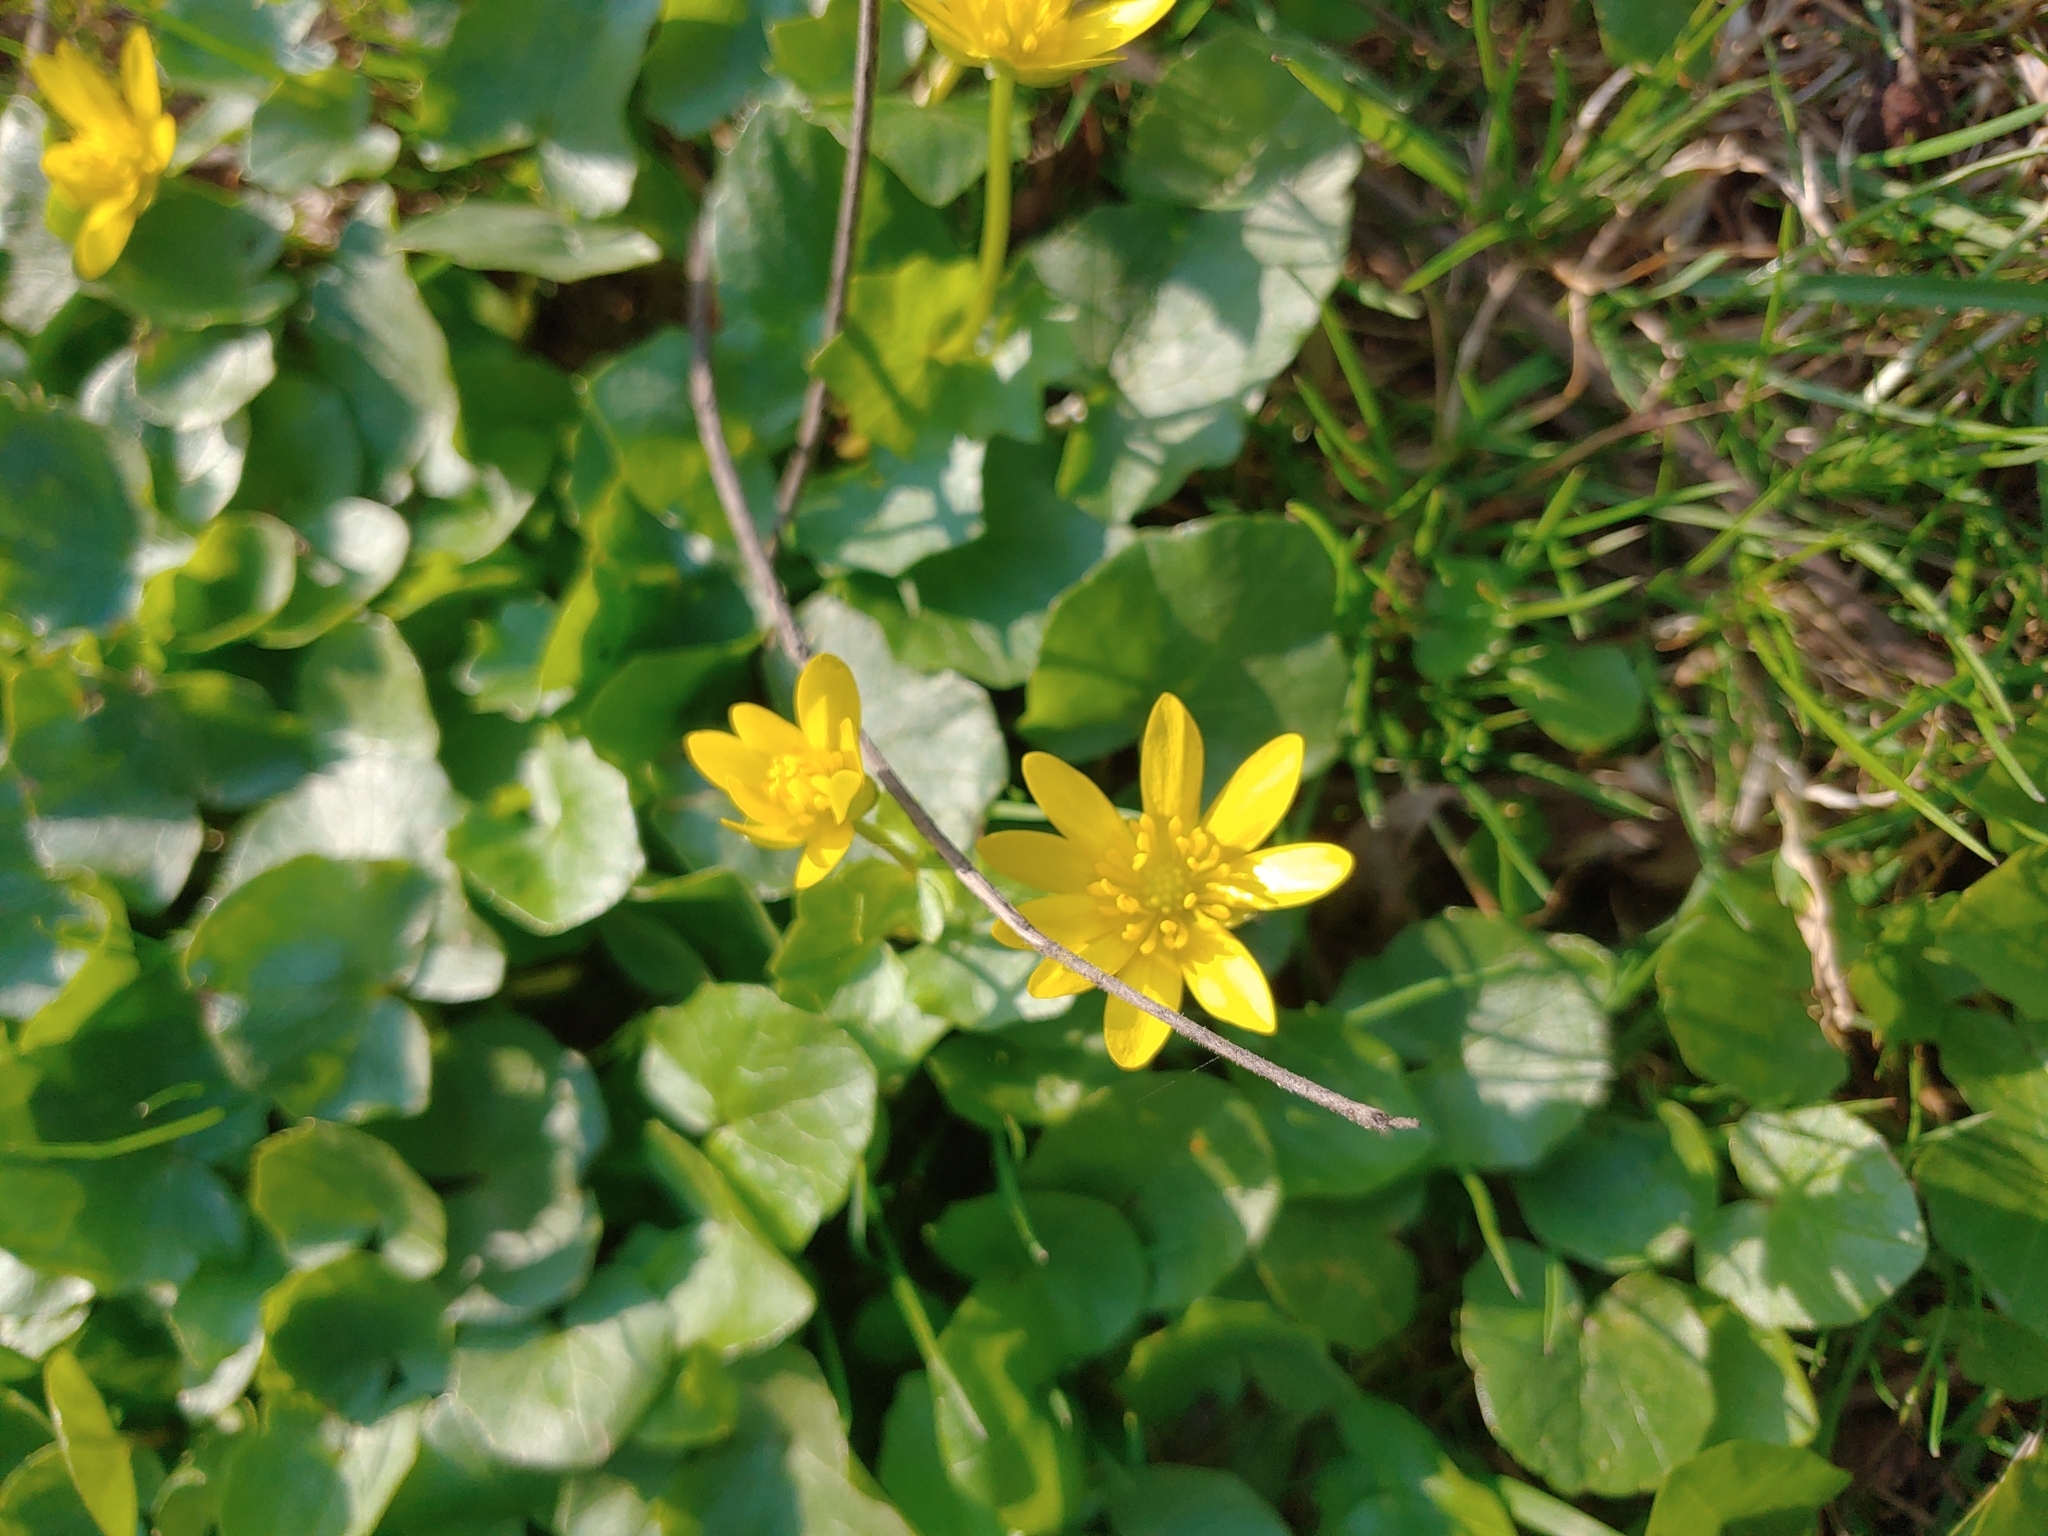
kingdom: Plantae
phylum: Tracheophyta
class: Magnoliopsida
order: Ranunculales
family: Ranunculaceae
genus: Ficaria
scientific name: Ficaria verna
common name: Lesser celandine
